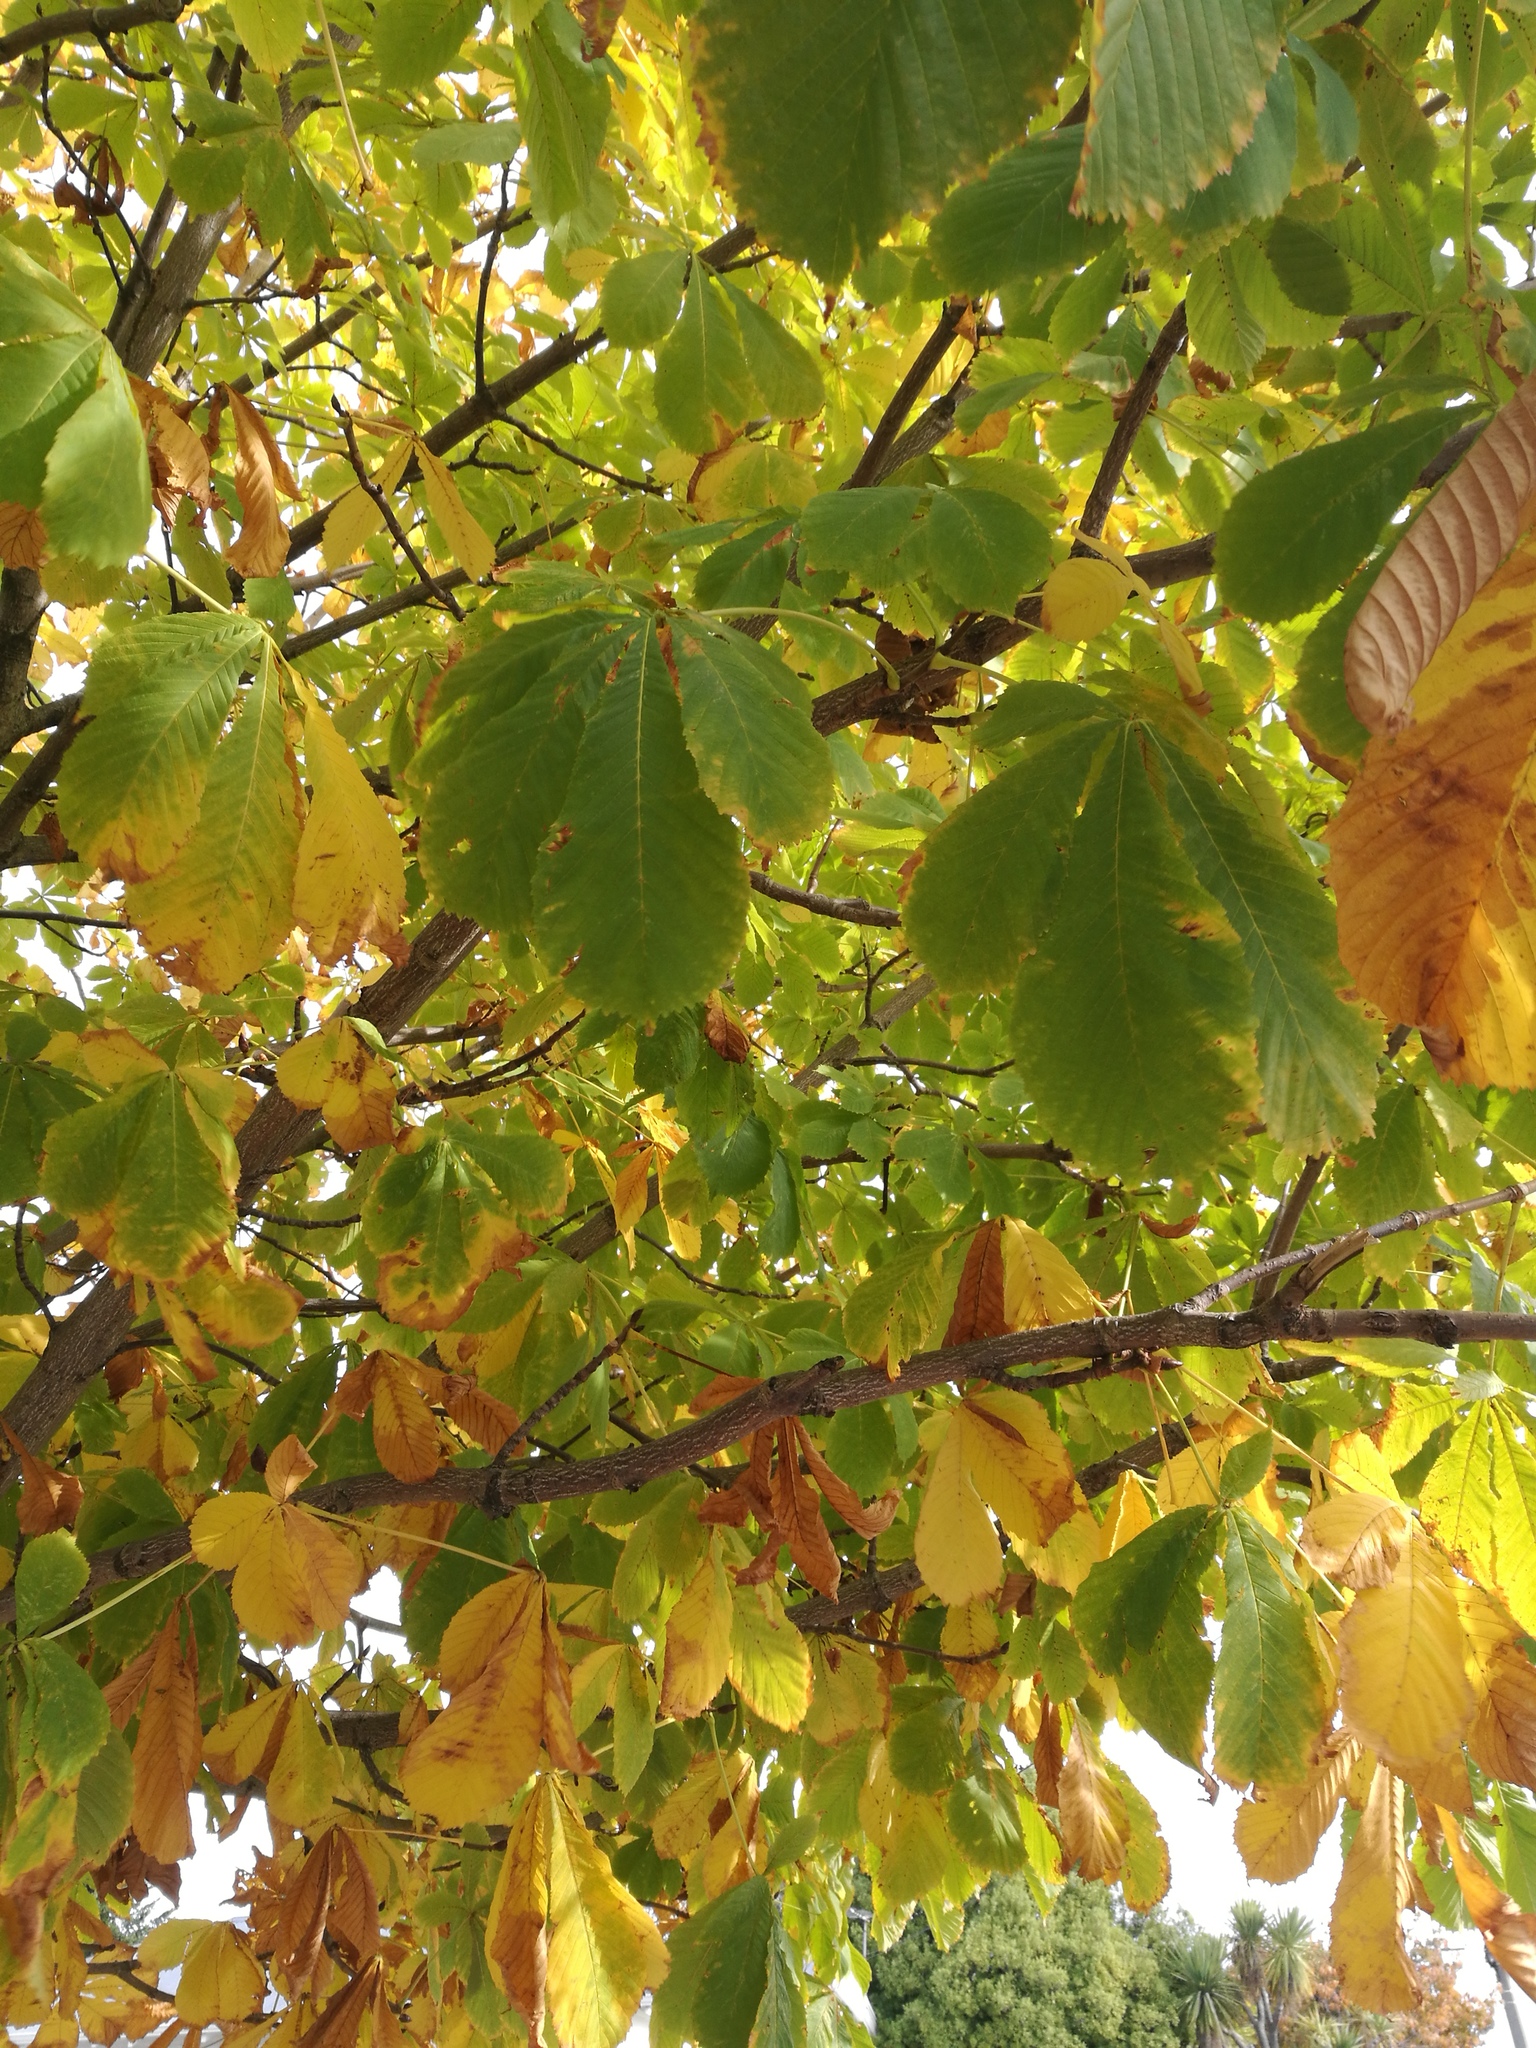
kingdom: Plantae
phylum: Tracheophyta
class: Magnoliopsida
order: Sapindales
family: Sapindaceae
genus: Aesculus
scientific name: Aesculus hippocastanum
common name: Horse-chestnut
